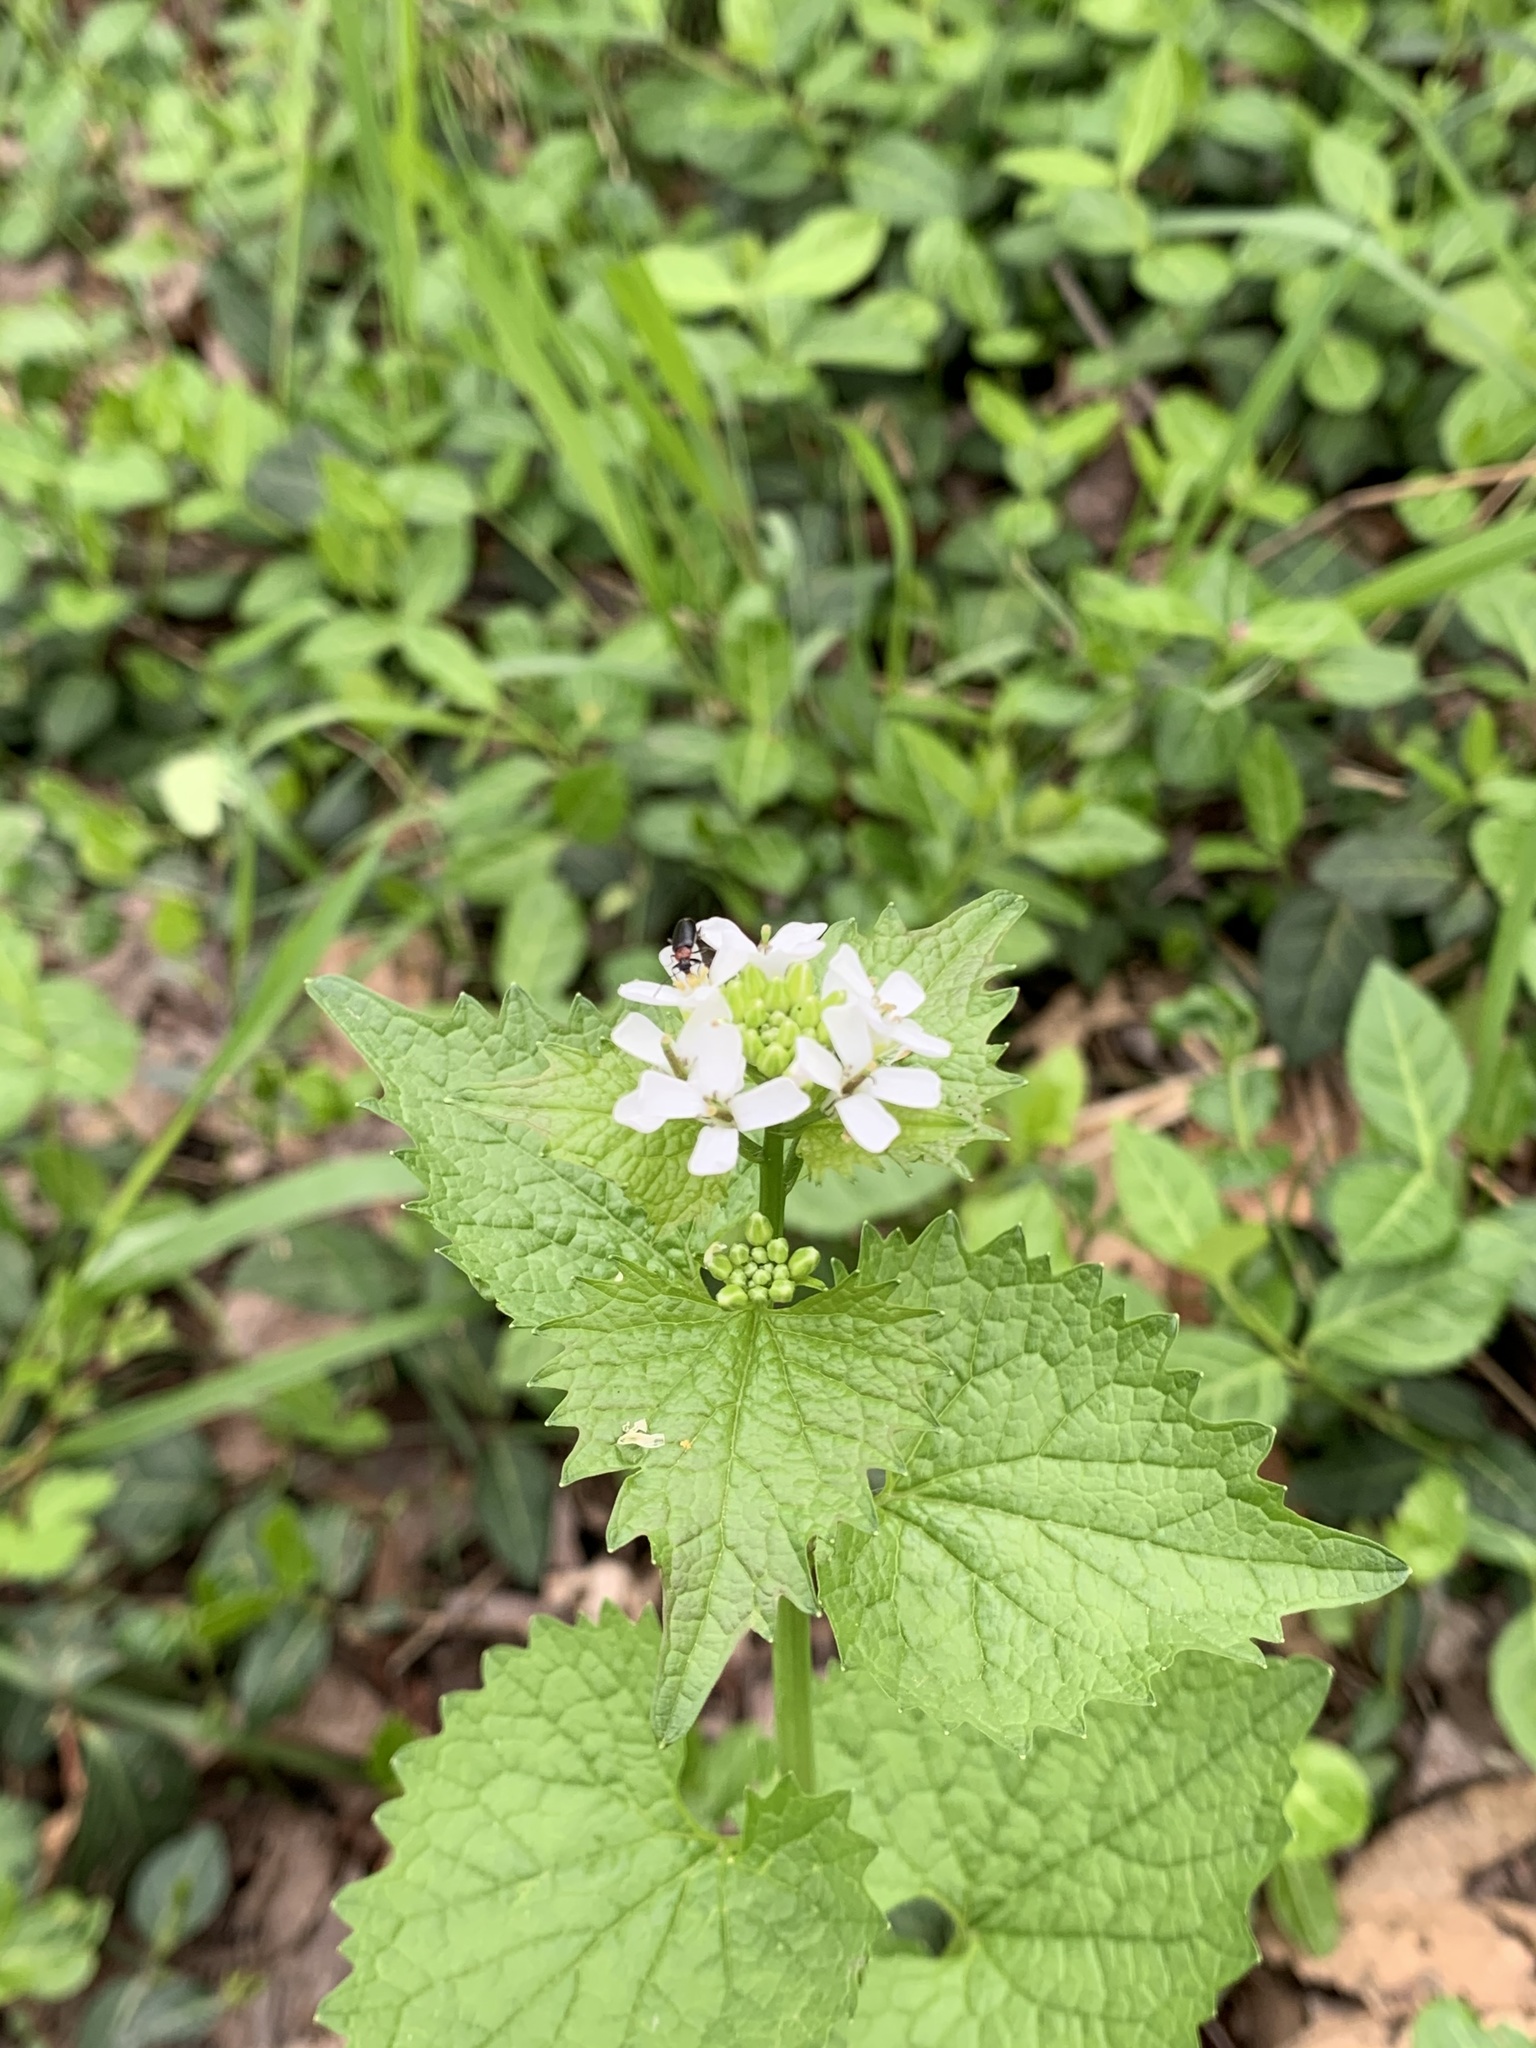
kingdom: Plantae
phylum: Tracheophyta
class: Magnoliopsida
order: Brassicales
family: Brassicaceae
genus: Alliaria
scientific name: Alliaria petiolata
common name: Garlic mustard
